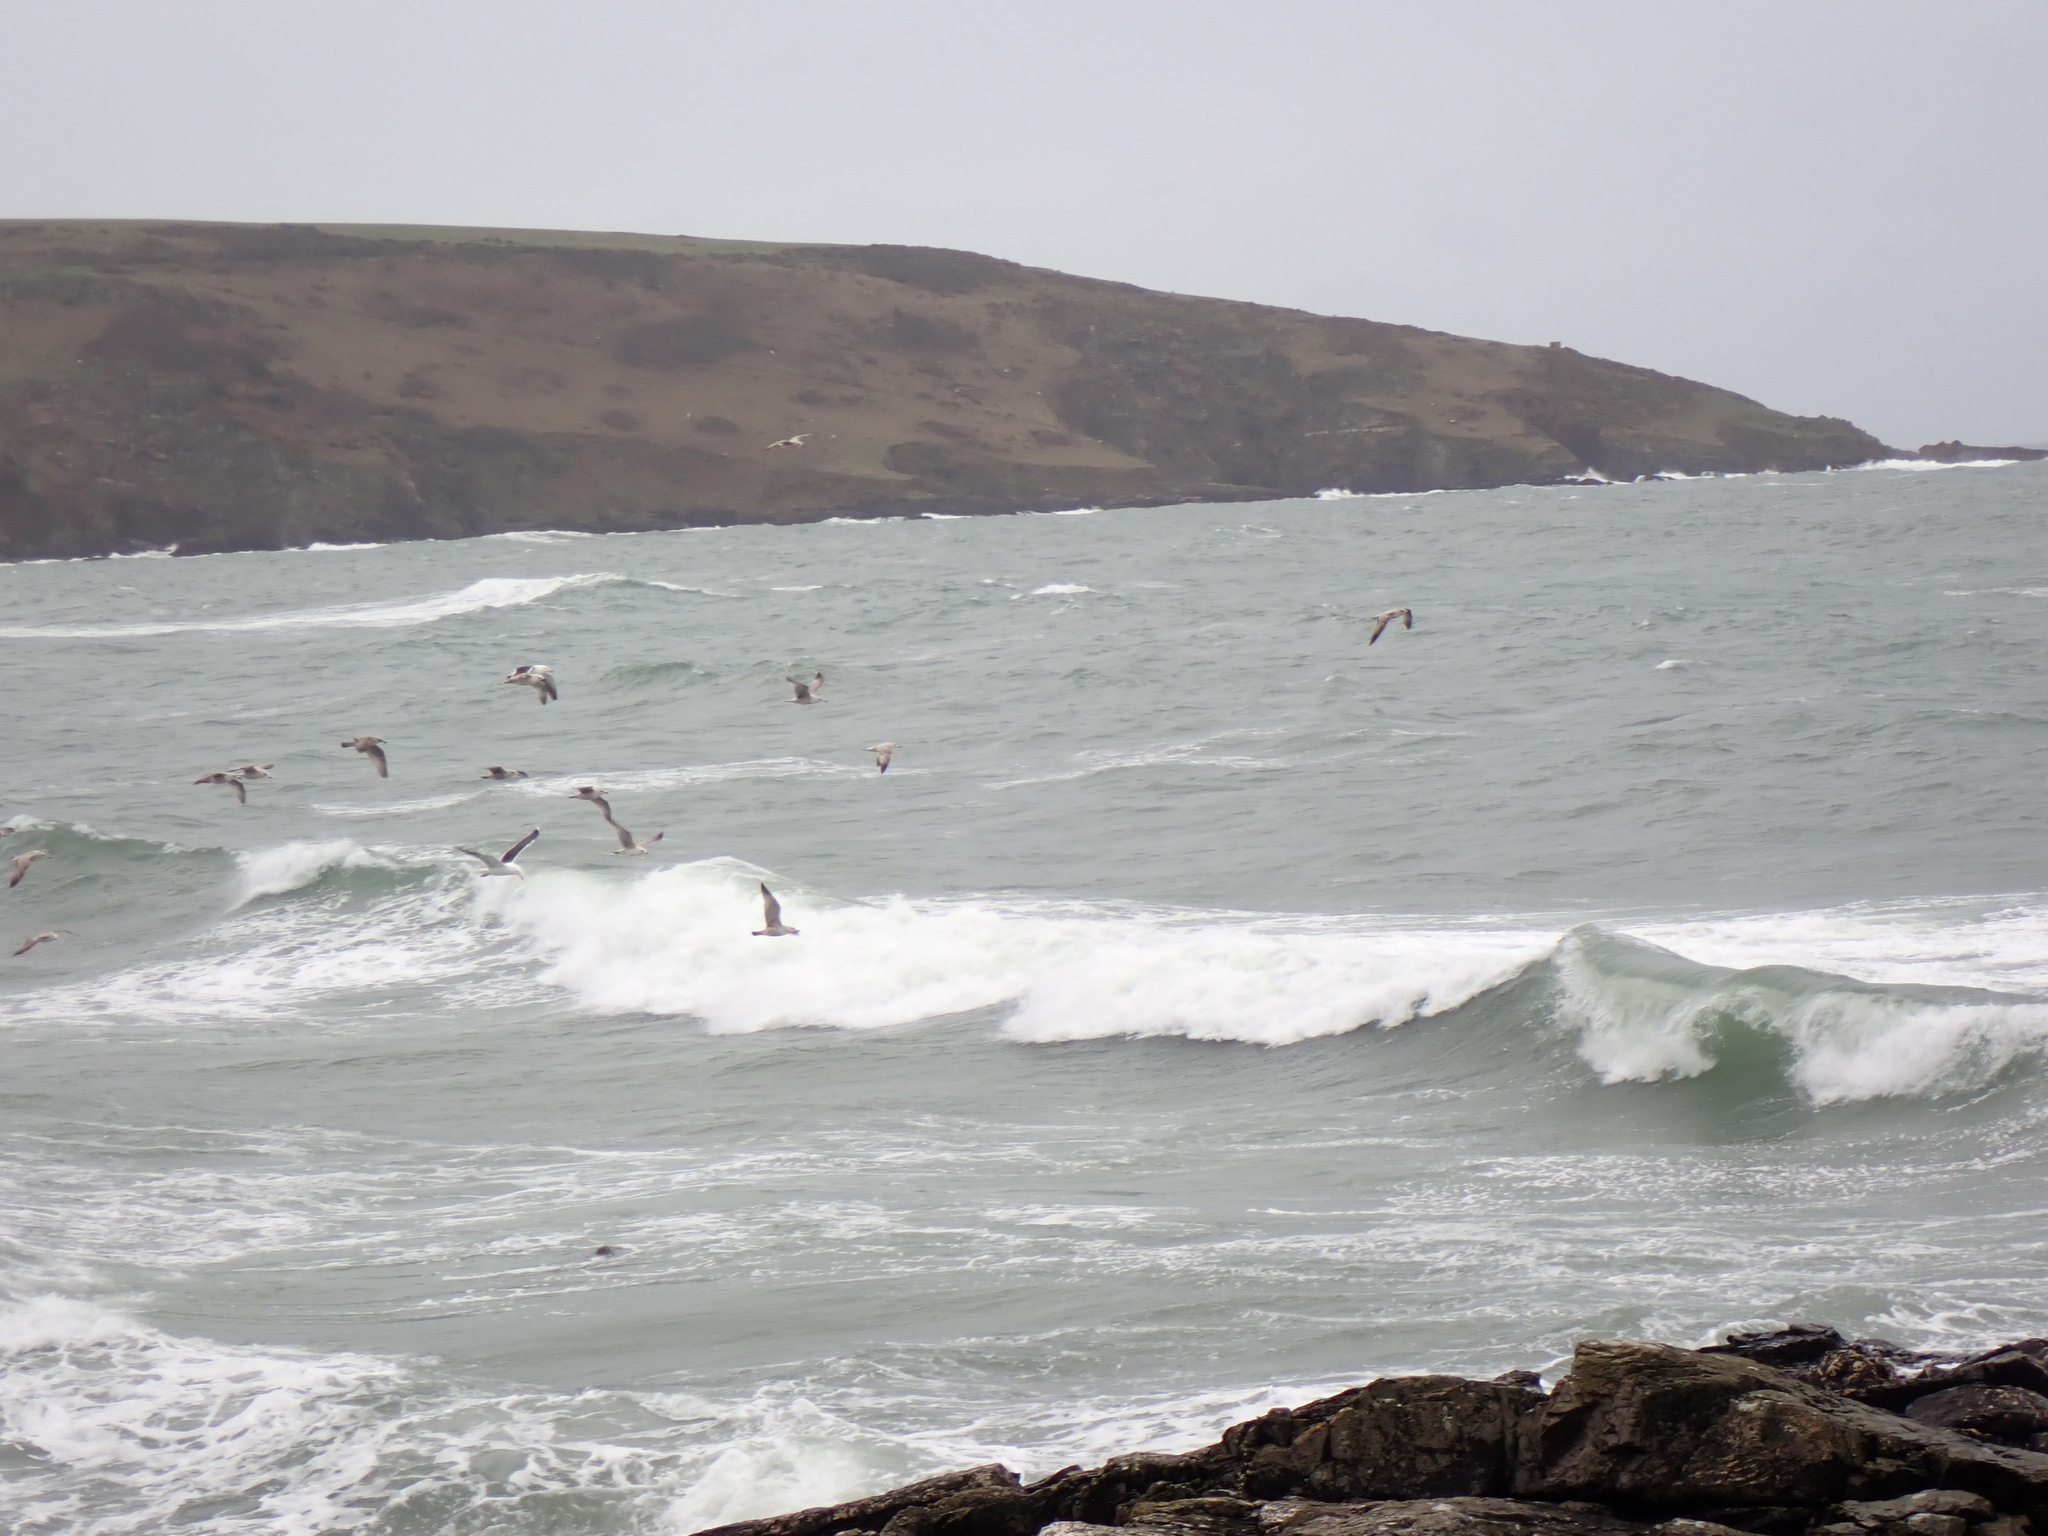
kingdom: Animalia
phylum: Chordata
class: Mammalia
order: Carnivora
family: Phocidae
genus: Halichoerus
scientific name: Halichoerus grypus
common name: Grey seal
